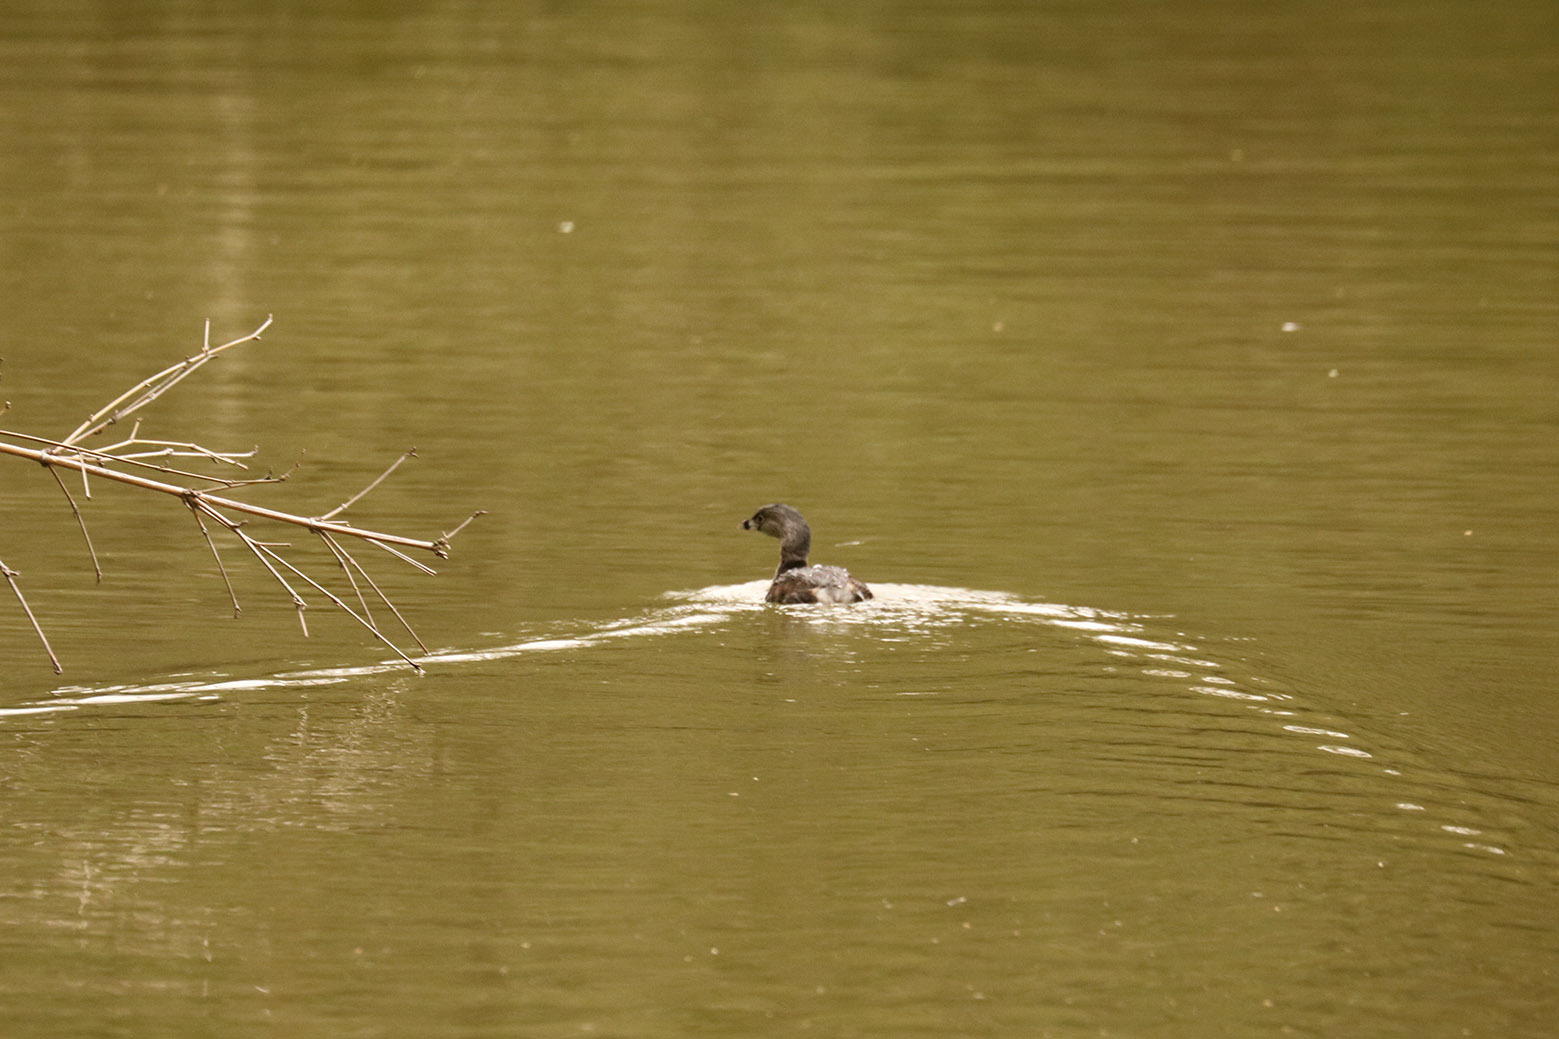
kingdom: Animalia
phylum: Chordata
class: Aves
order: Podicipediformes
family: Podicipedidae
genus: Podilymbus
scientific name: Podilymbus podiceps
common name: Pied-billed grebe
